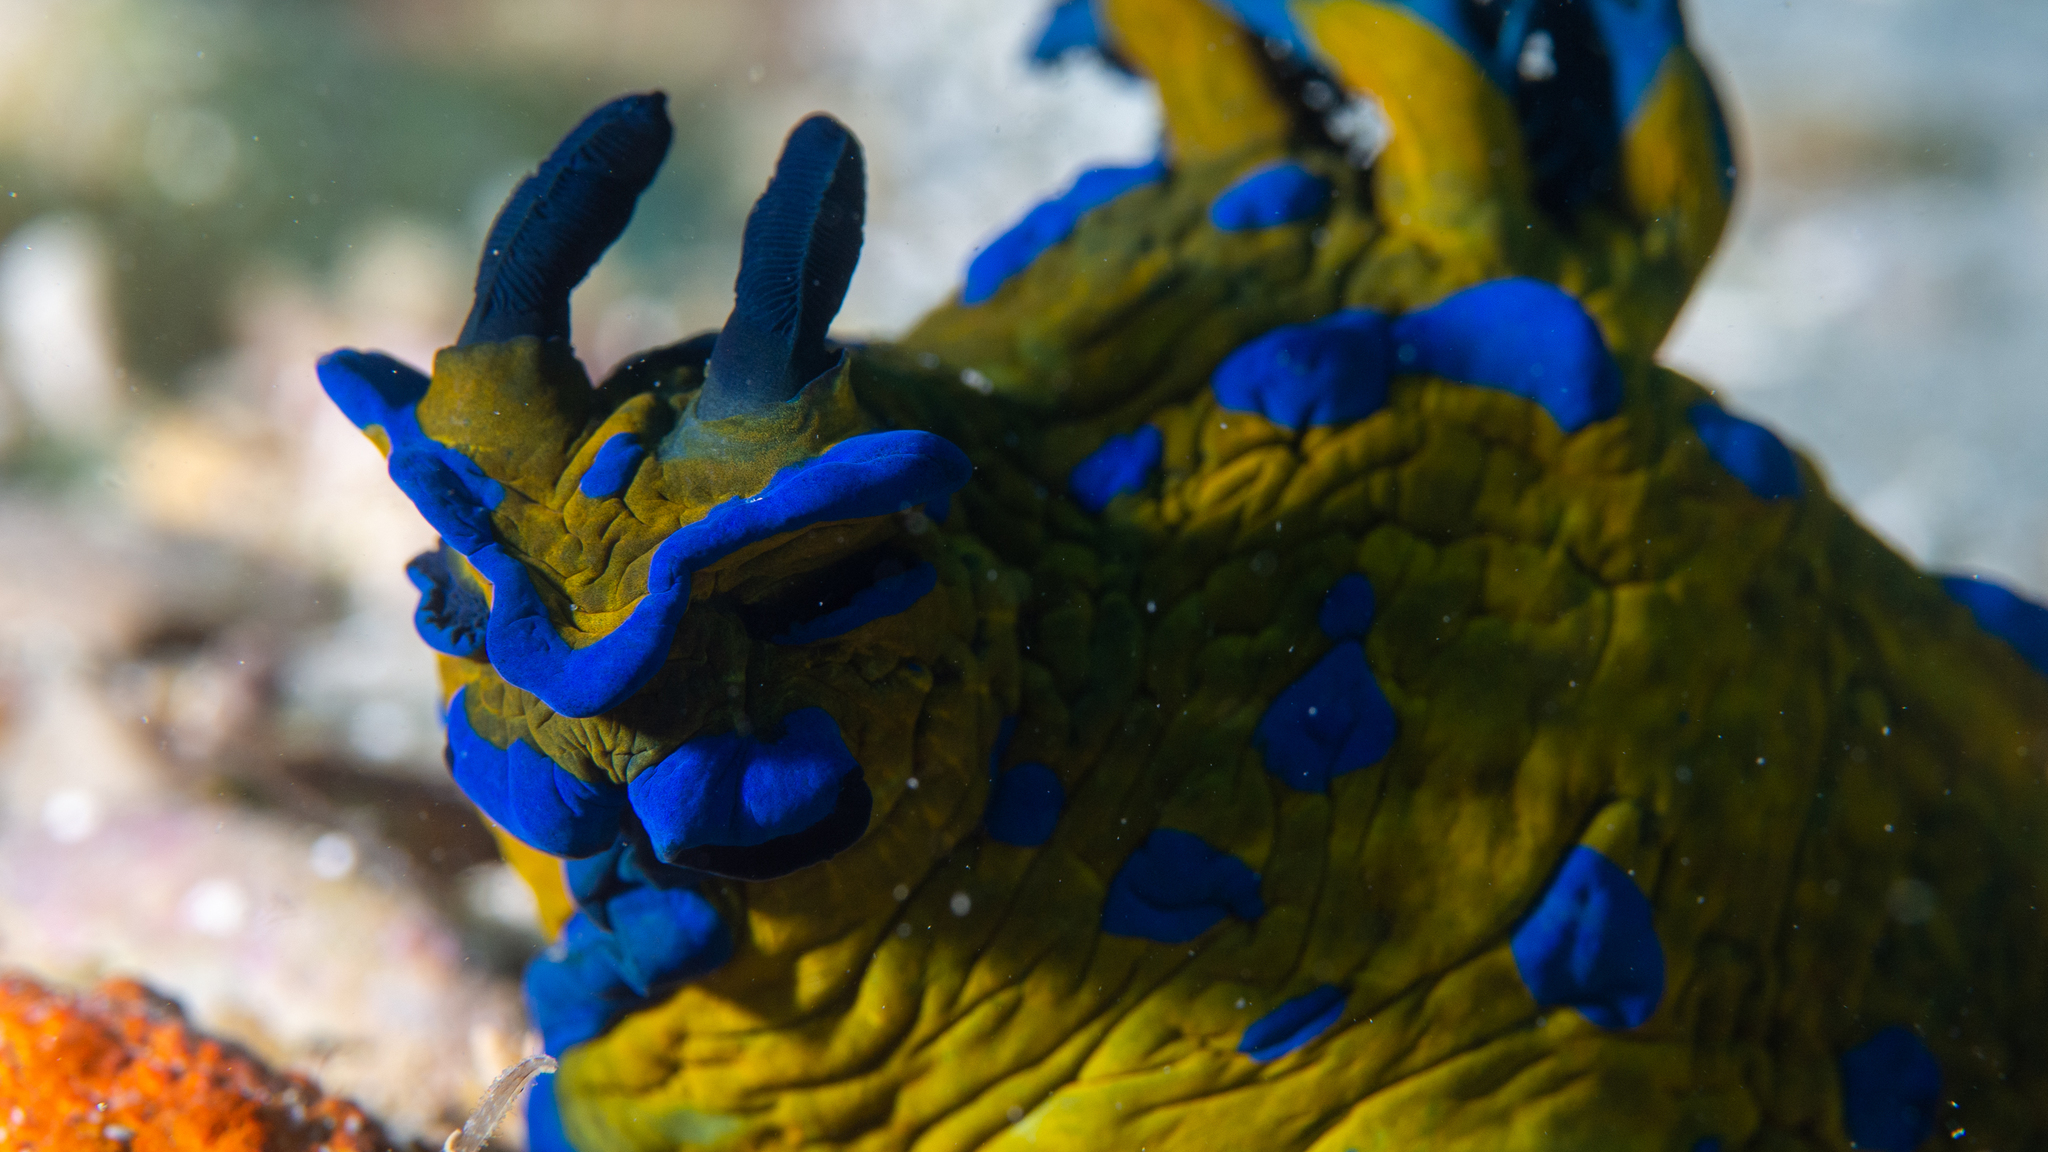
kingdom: Animalia
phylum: Mollusca
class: Gastropoda
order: Nudibranchia
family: Polyceridae
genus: Tambja
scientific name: Tambja verconis
